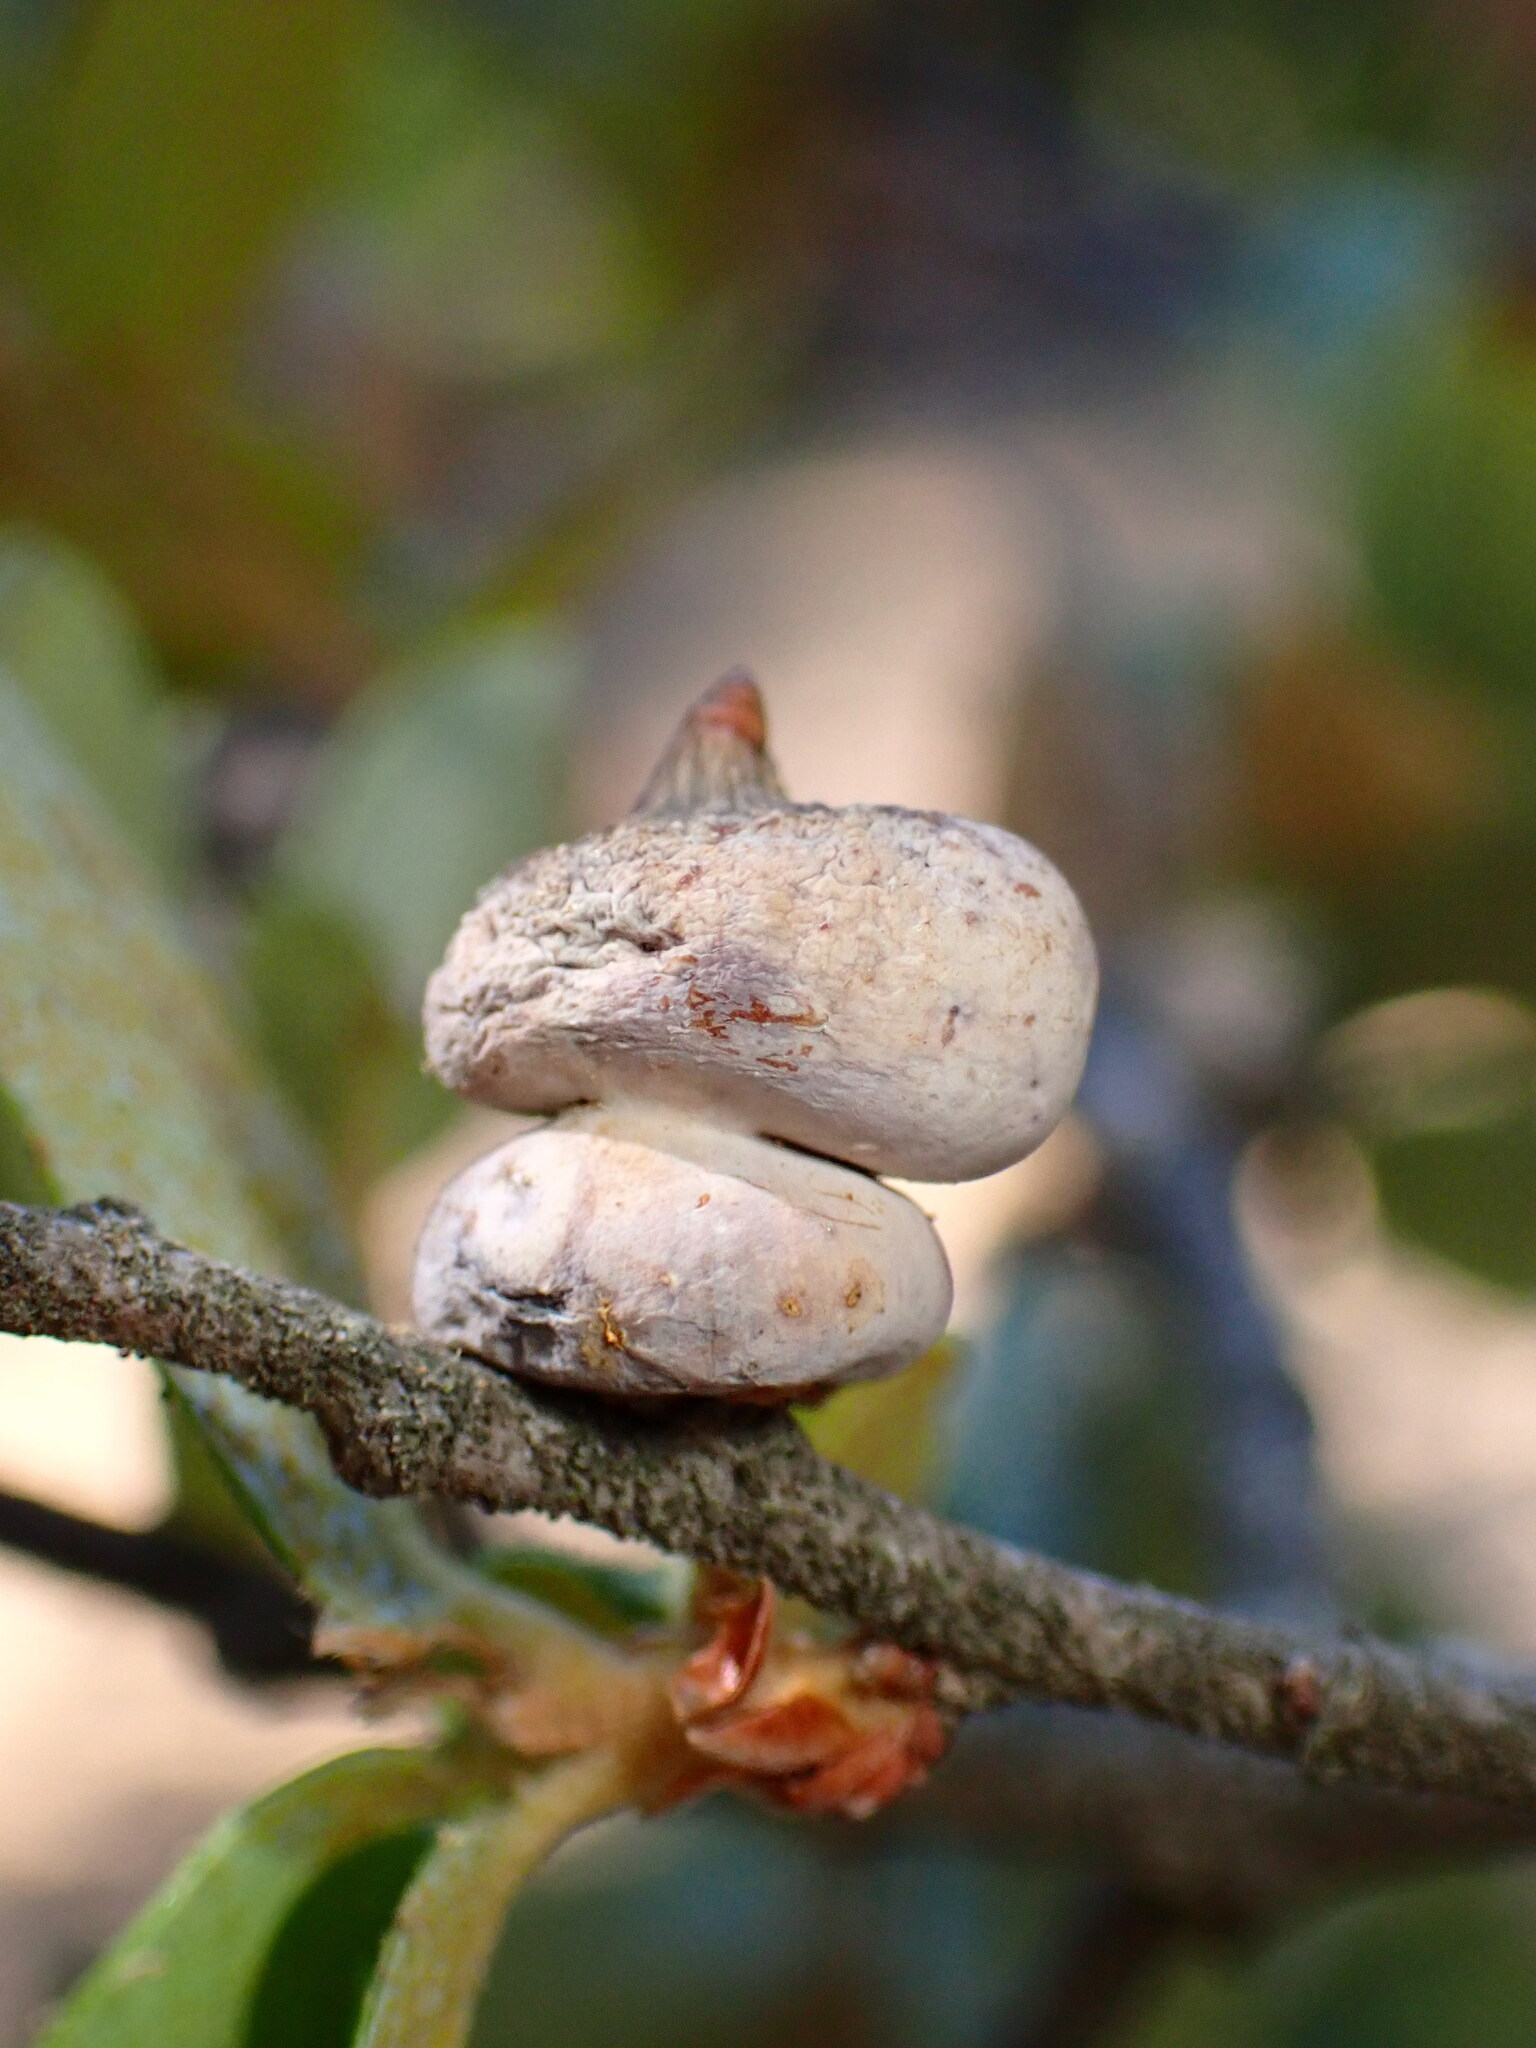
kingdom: Animalia
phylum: Arthropoda
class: Insecta
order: Hymenoptera
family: Cynipidae
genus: Heteroecus
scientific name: Heteroecus
